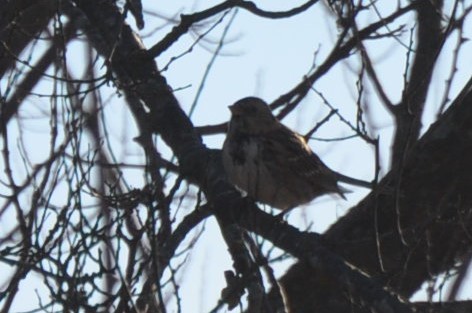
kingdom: Animalia
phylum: Chordata
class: Aves
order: Passeriformes
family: Passerellidae
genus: Zonotrichia
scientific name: Zonotrichia querula
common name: Harris's sparrow
